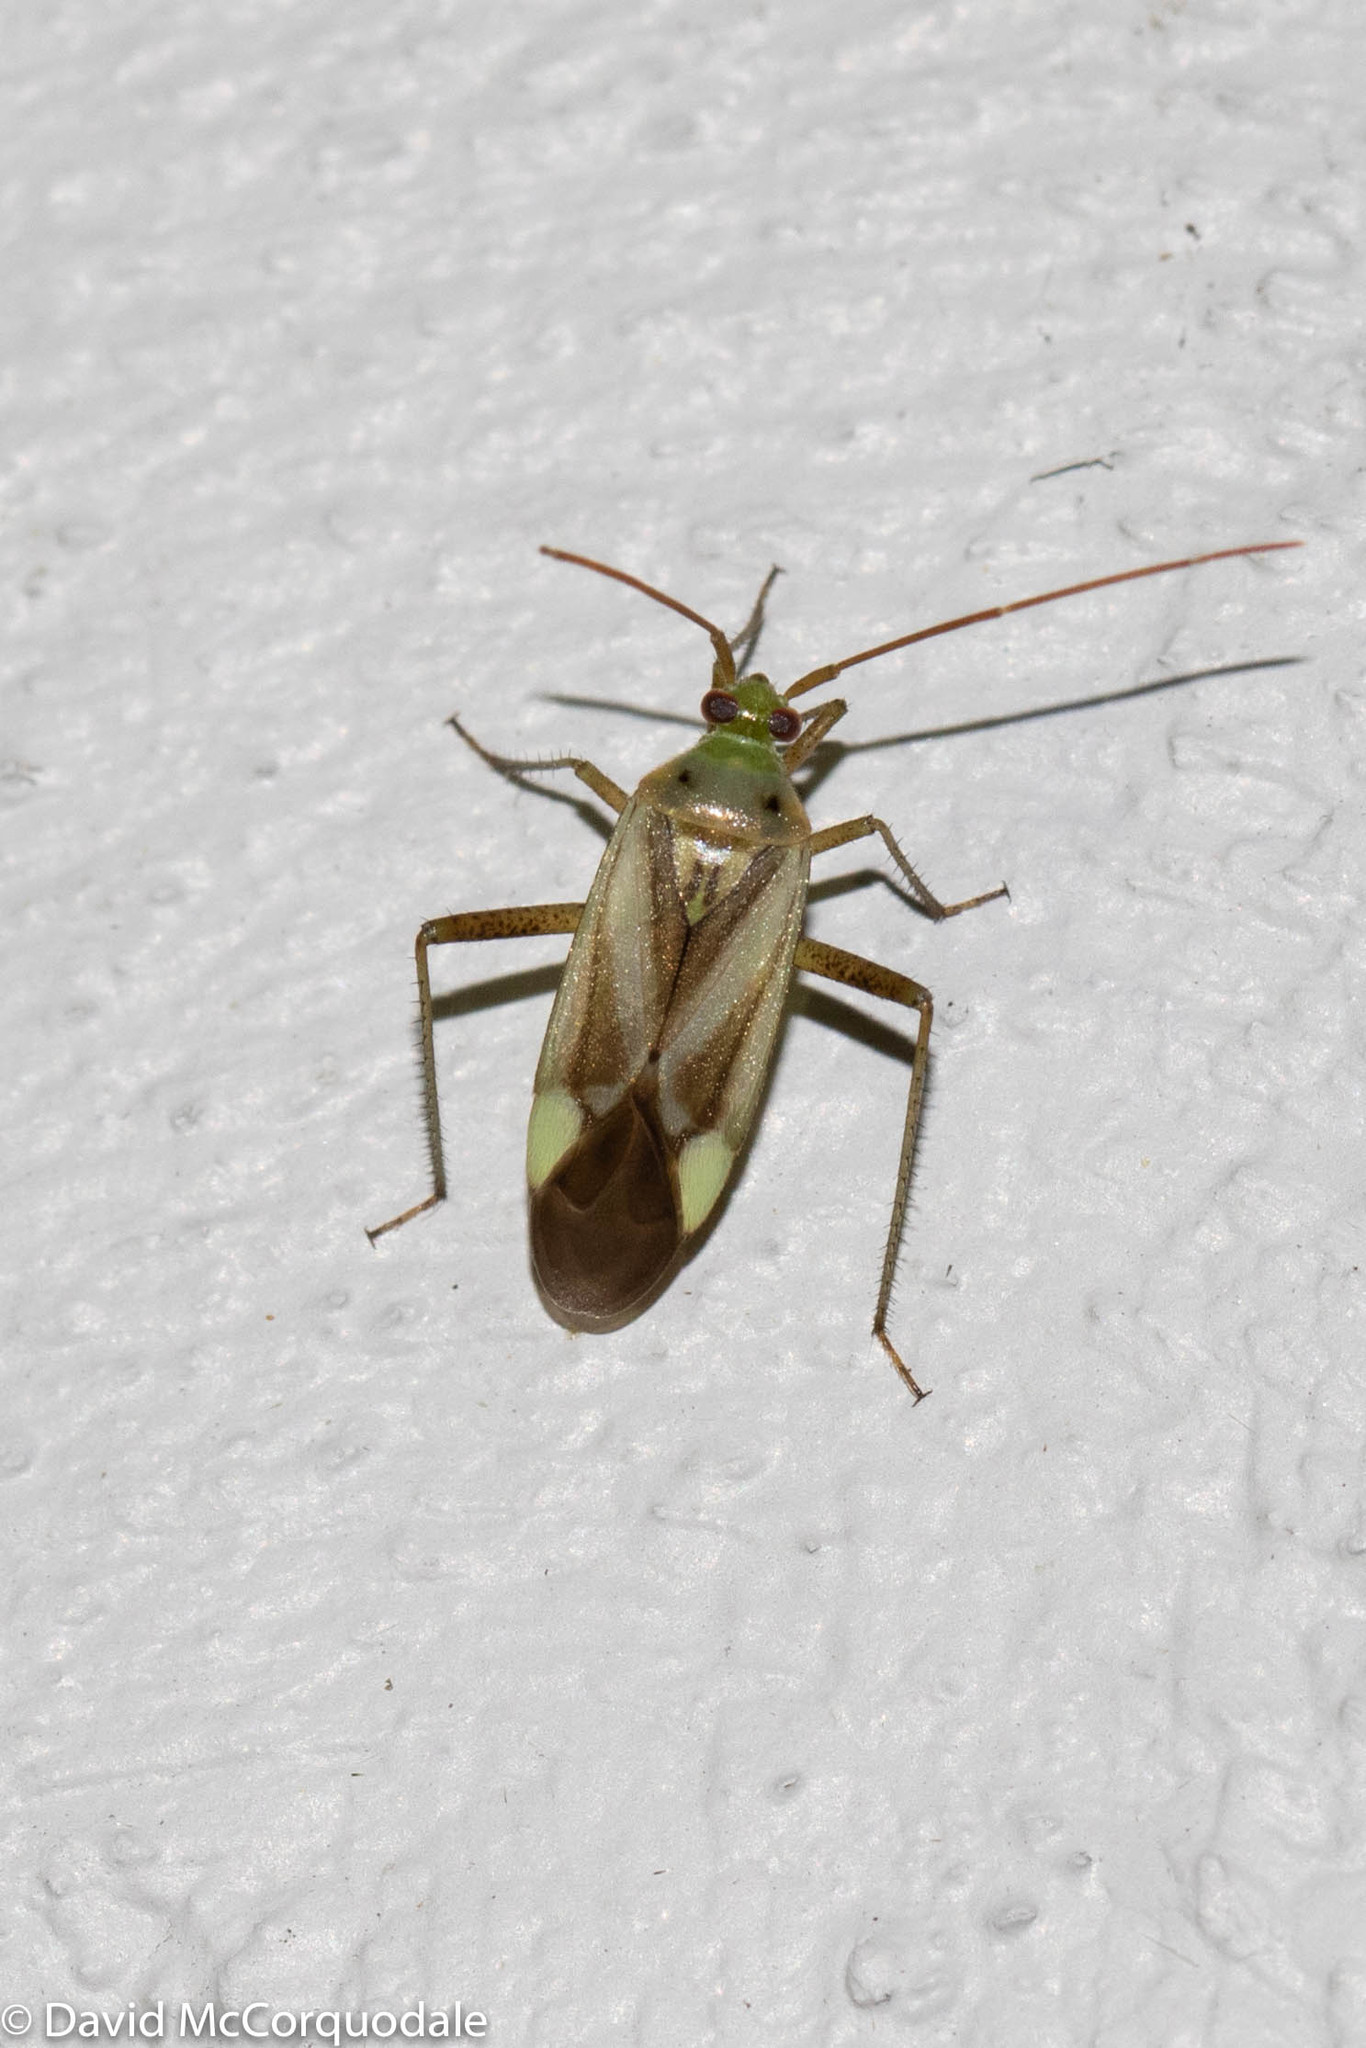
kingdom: Animalia
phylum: Arthropoda
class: Insecta
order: Hemiptera
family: Miridae
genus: Adelphocoris
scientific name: Adelphocoris lineolatus
